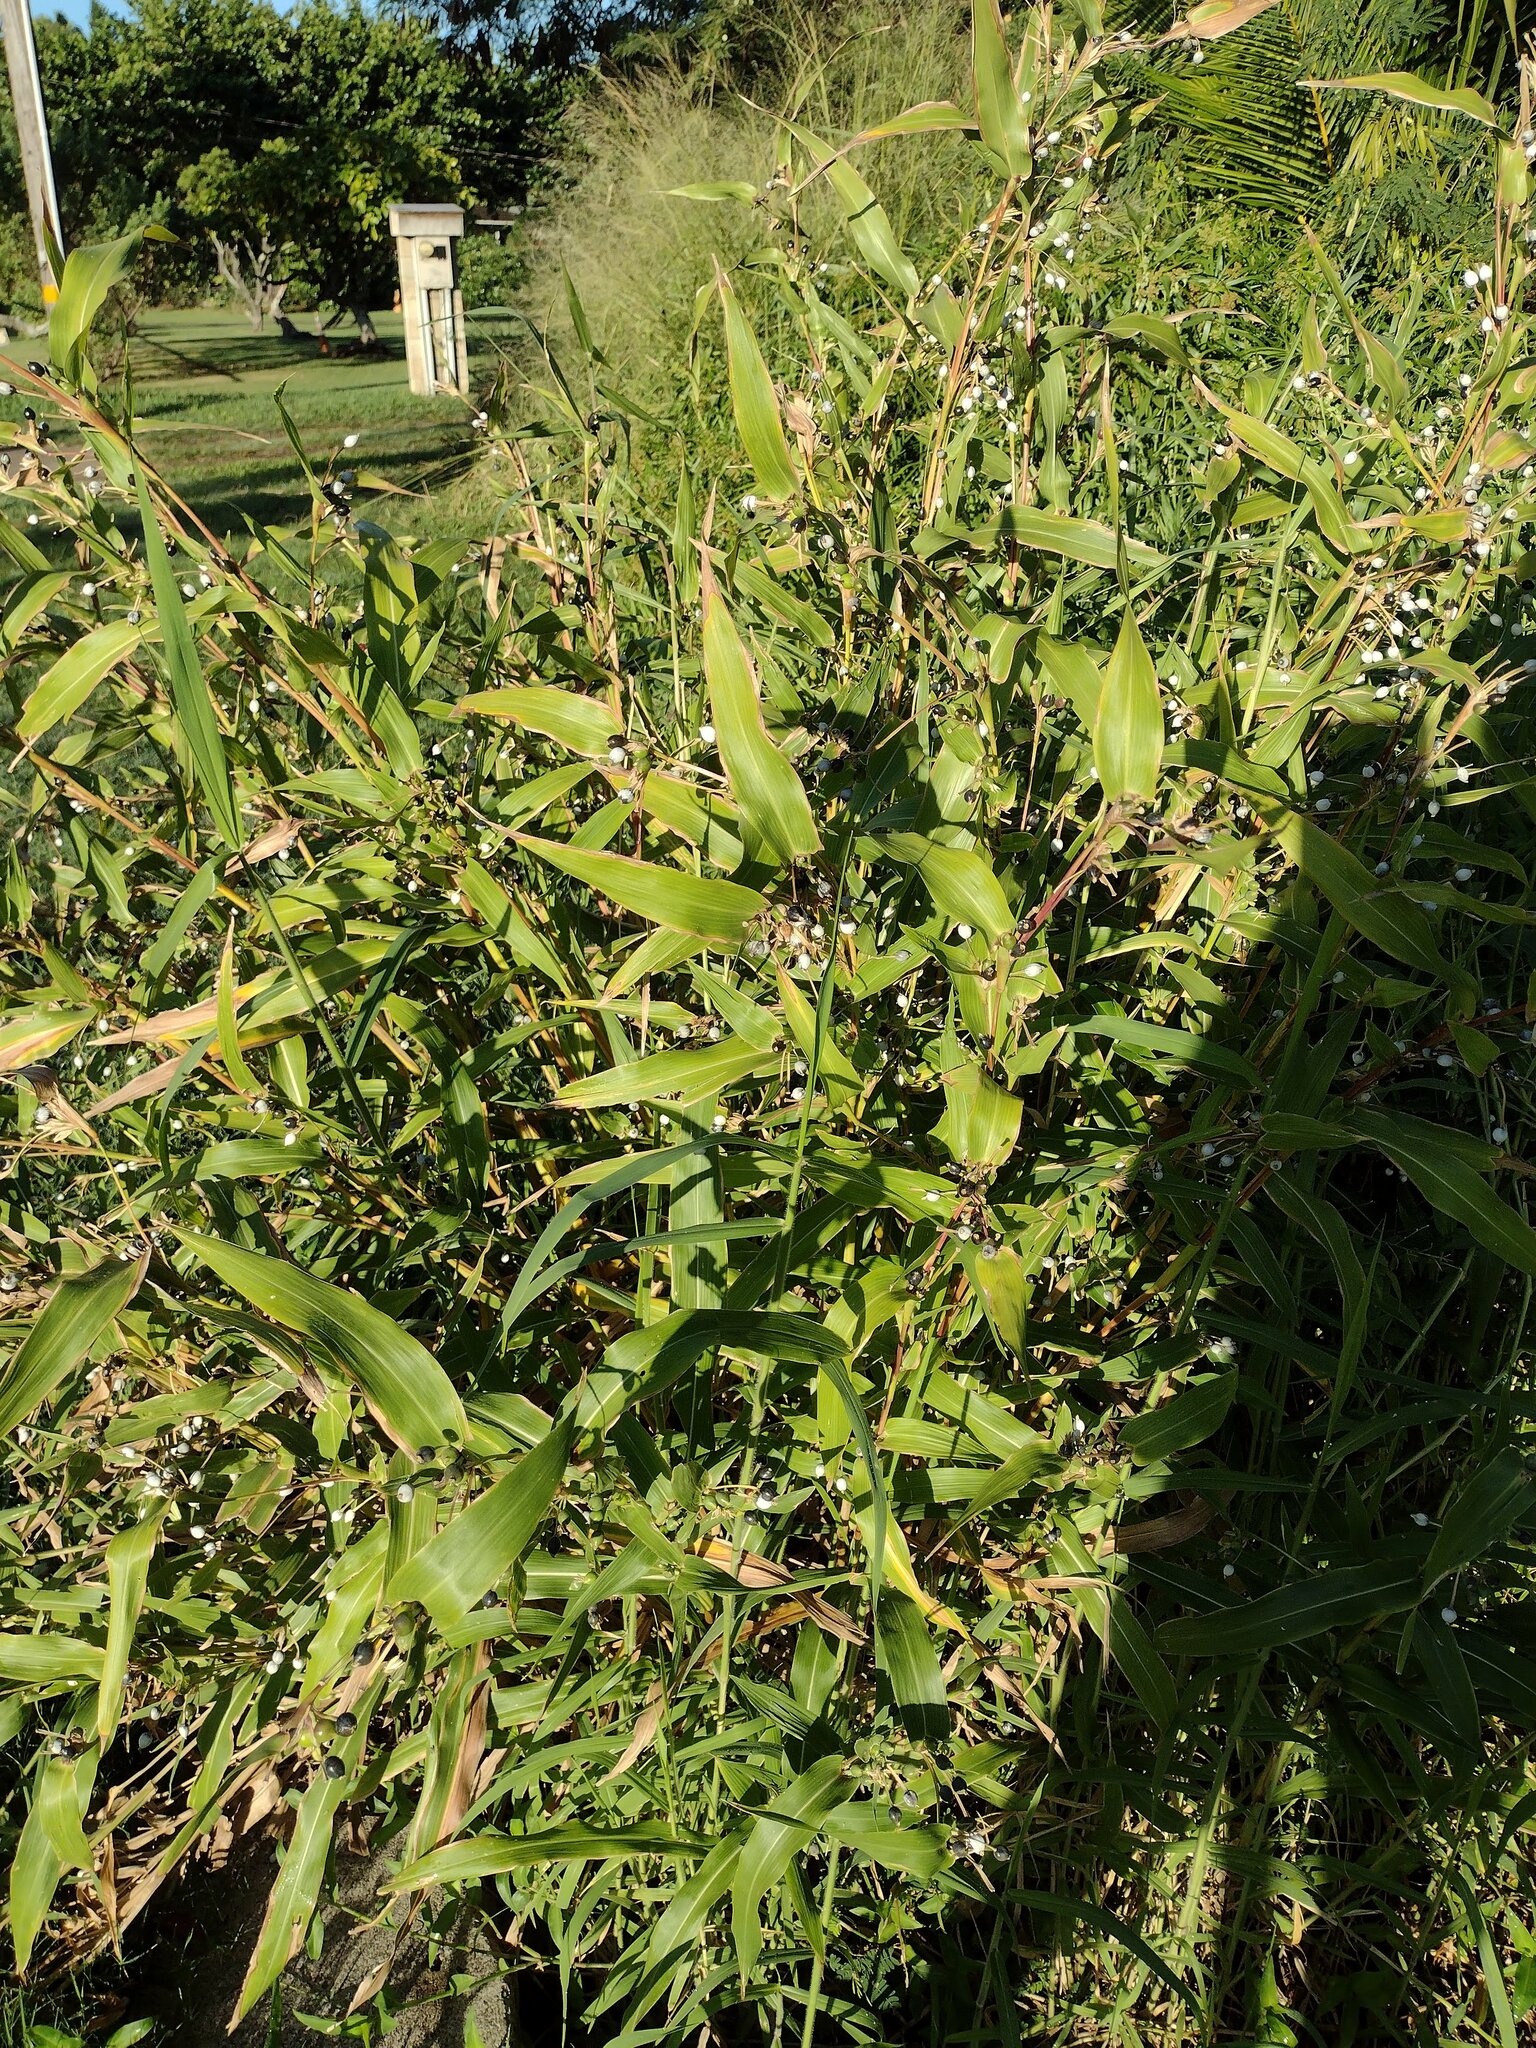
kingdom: Plantae
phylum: Tracheophyta
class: Liliopsida
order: Poales
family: Poaceae
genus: Coix
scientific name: Coix lacryma-jobi
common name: Job's tears
